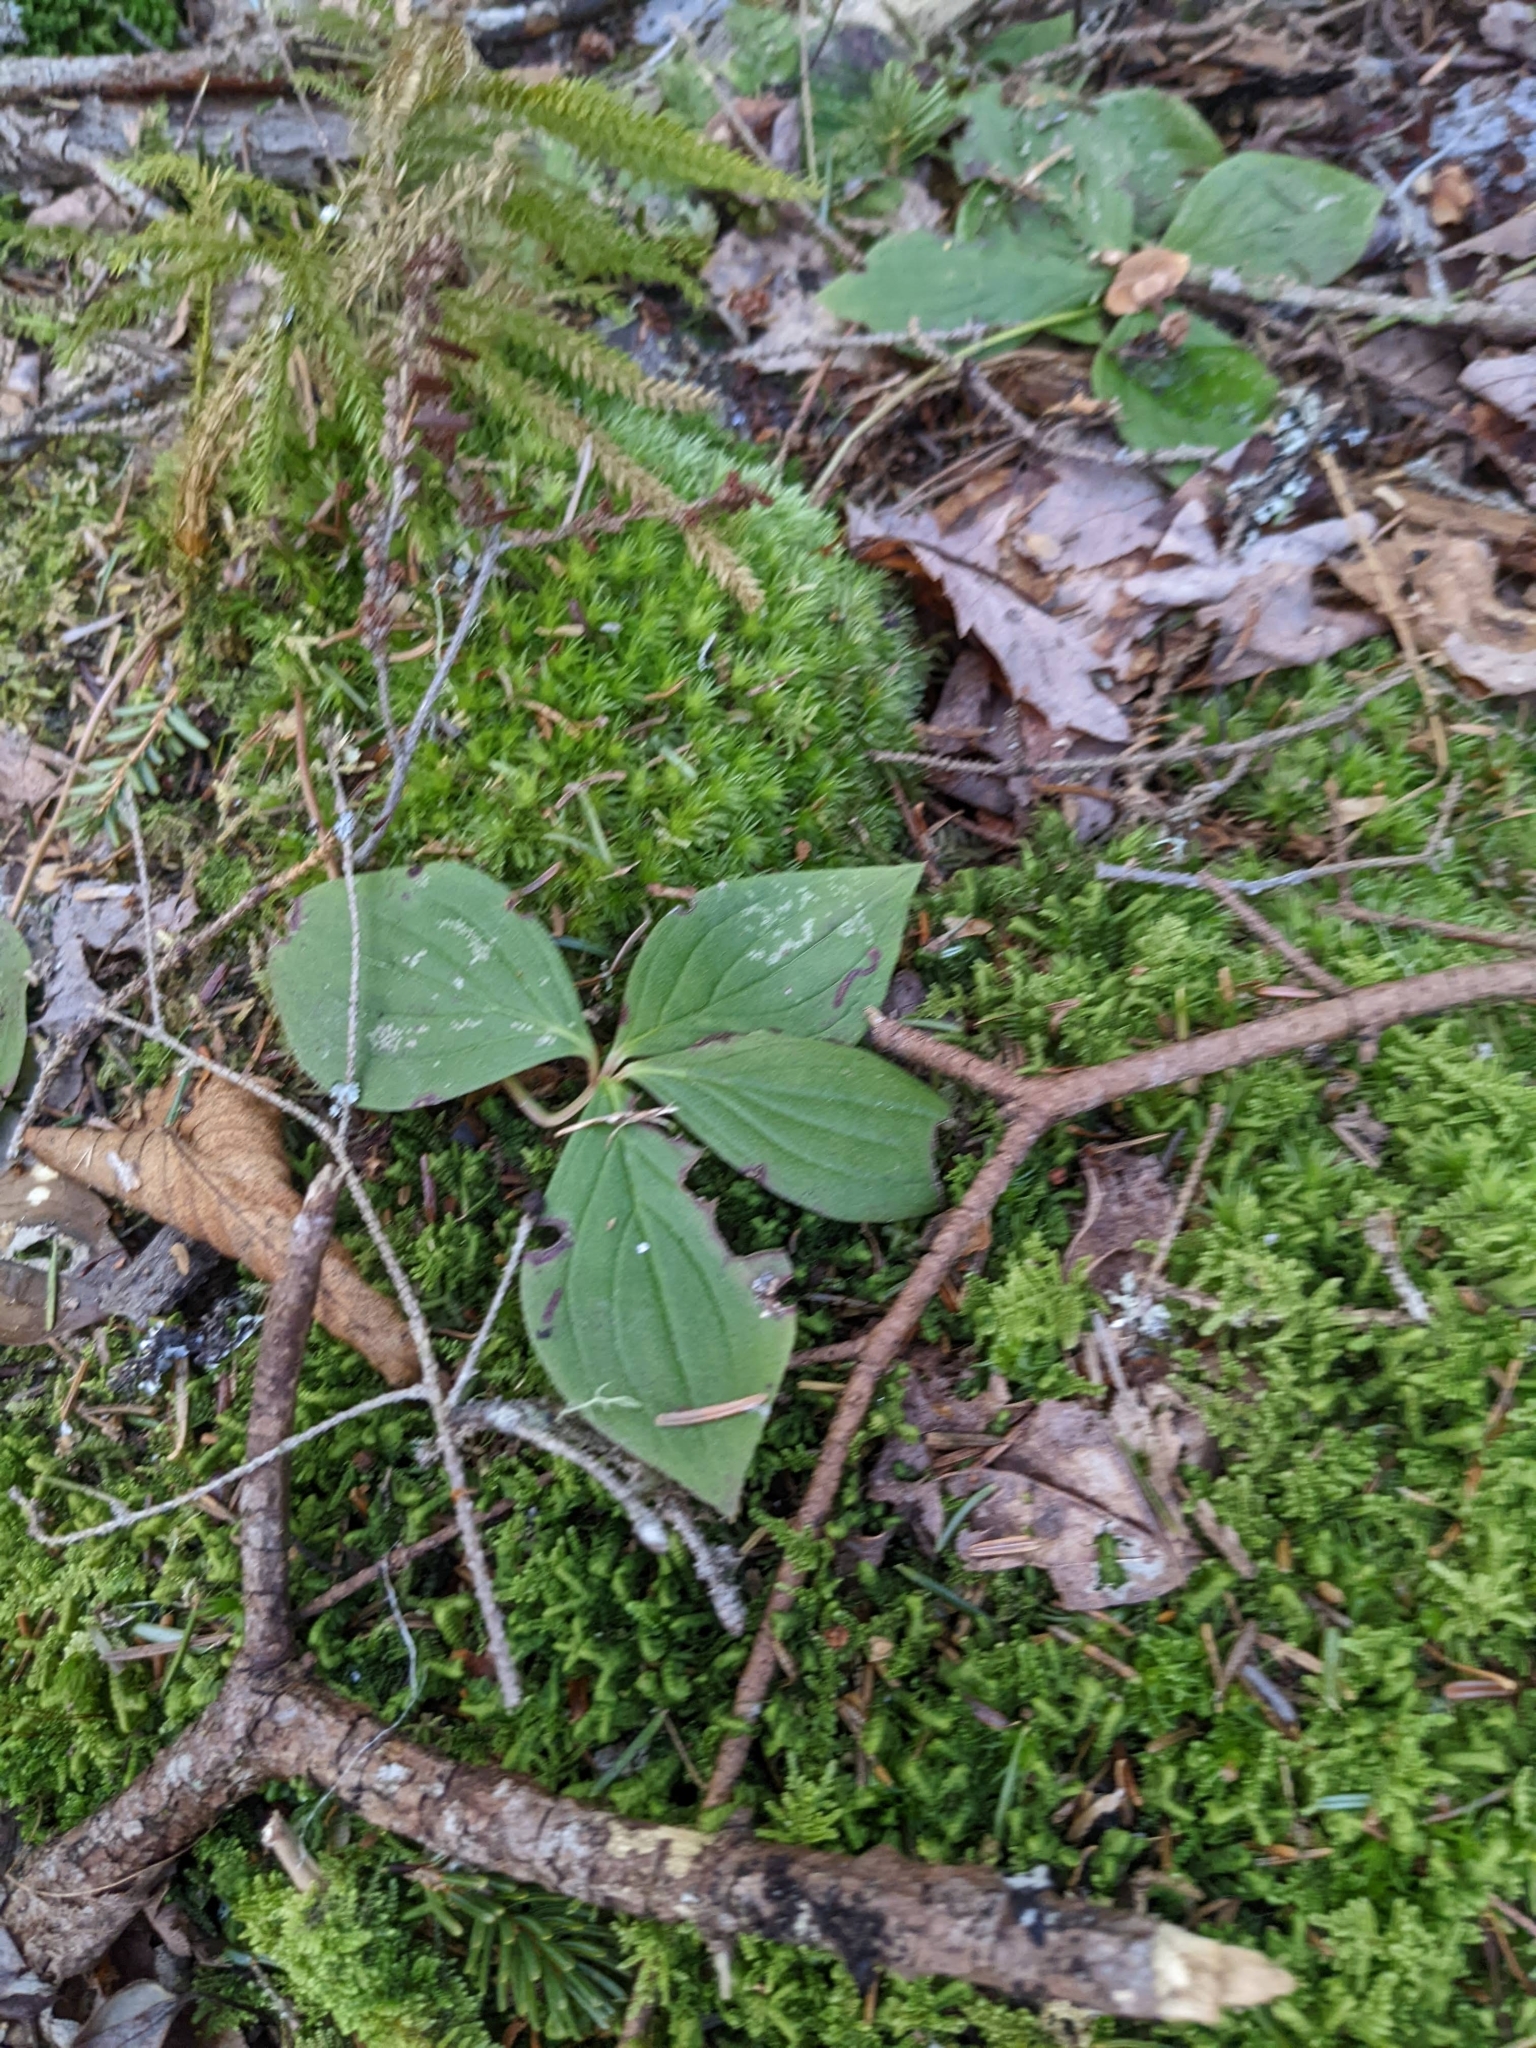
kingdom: Plantae
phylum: Tracheophyta
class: Magnoliopsida
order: Cornales
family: Cornaceae
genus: Cornus
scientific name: Cornus canadensis
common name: Creeping dogwood
